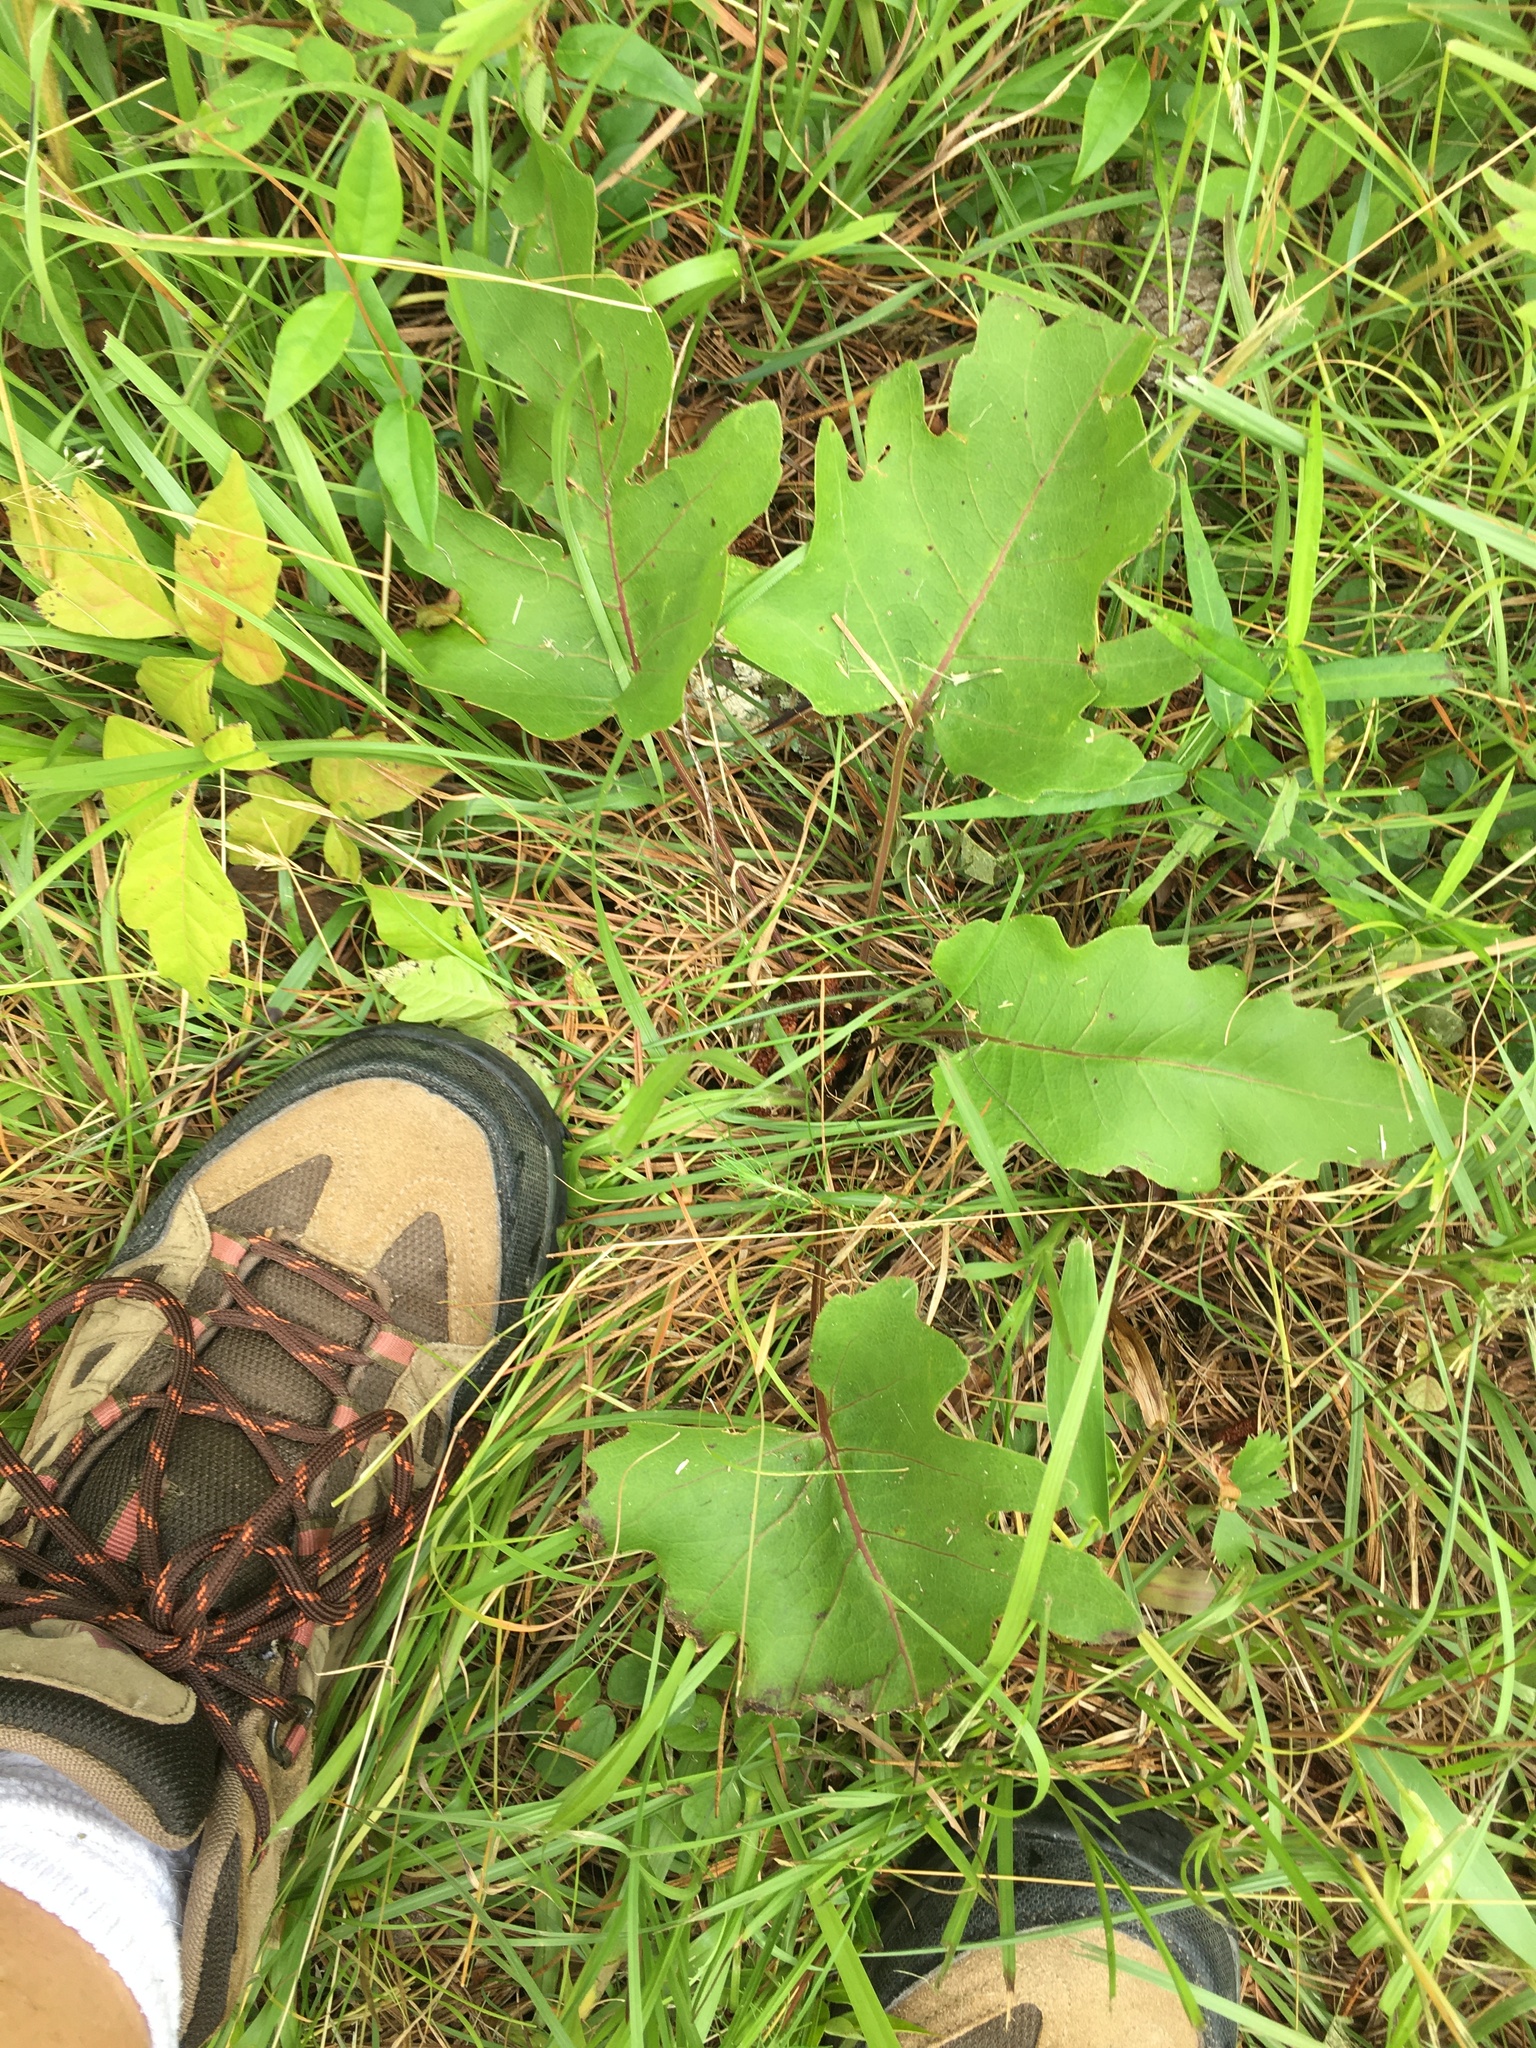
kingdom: Plantae
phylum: Tracheophyta
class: Magnoliopsida
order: Asterales
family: Asteraceae
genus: Silphium
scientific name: Silphium compositum
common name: Lesser basal-leaf rosinweed
